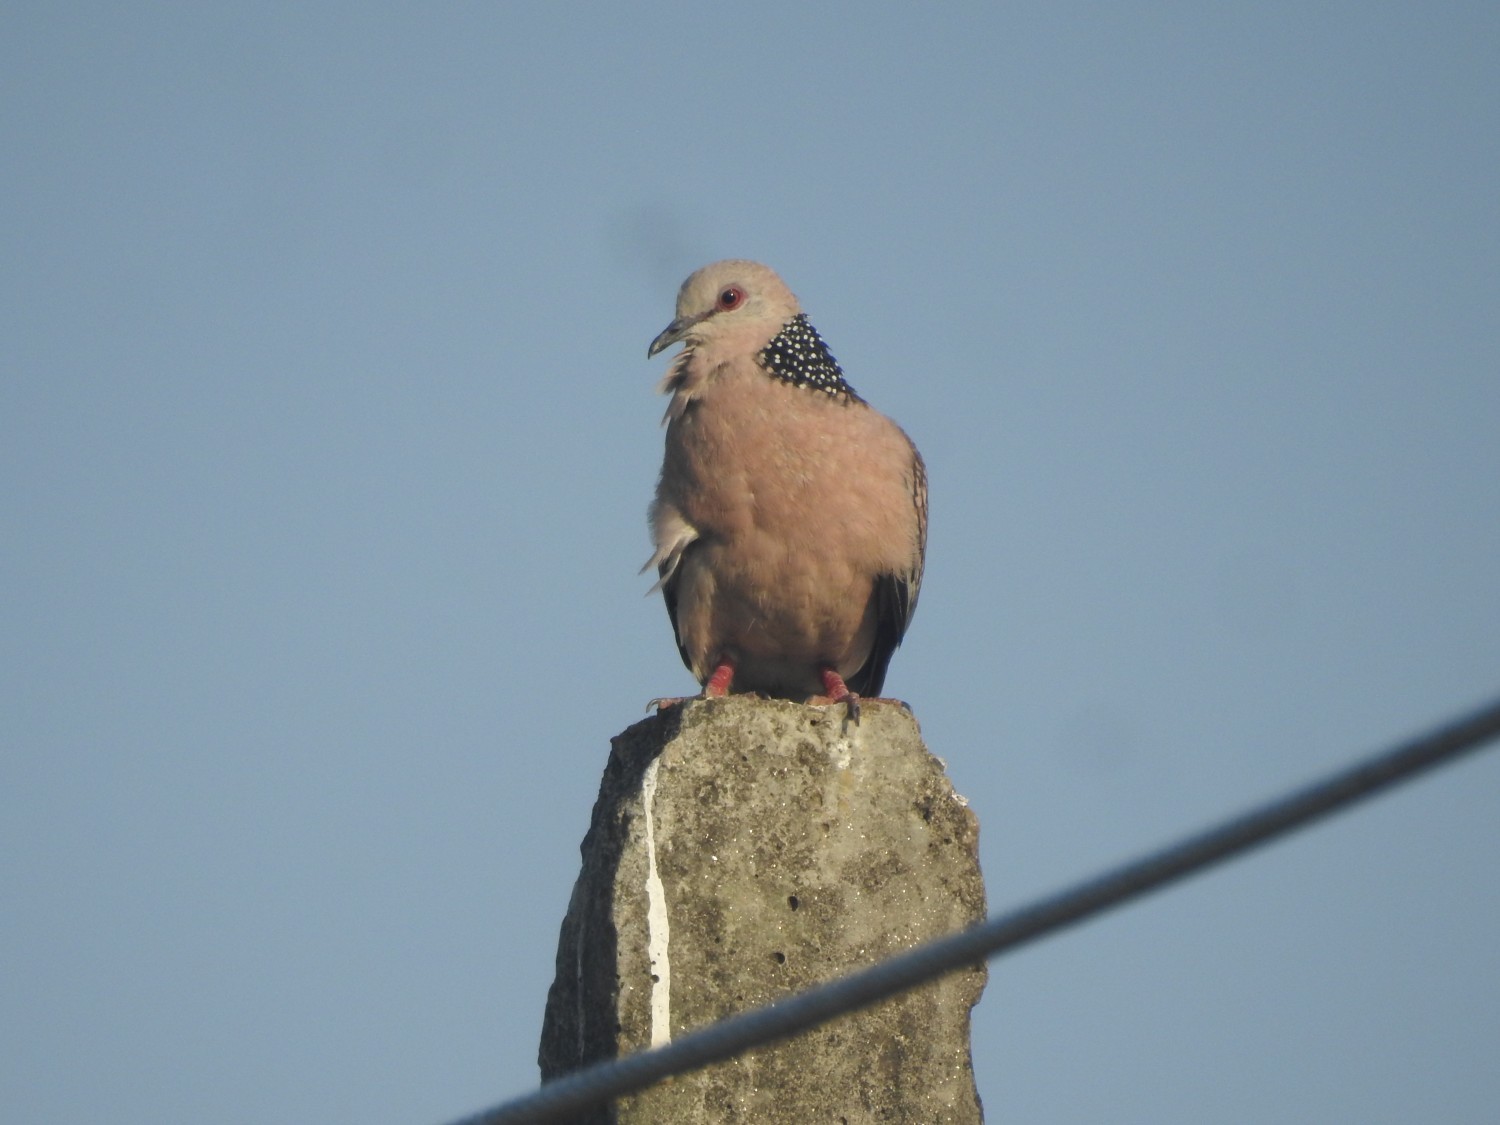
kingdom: Animalia
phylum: Chordata
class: Aves
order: Columbiformes
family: Columbidae
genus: Spilopelia
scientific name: Spilopelia chinensis
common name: Spotted dove
